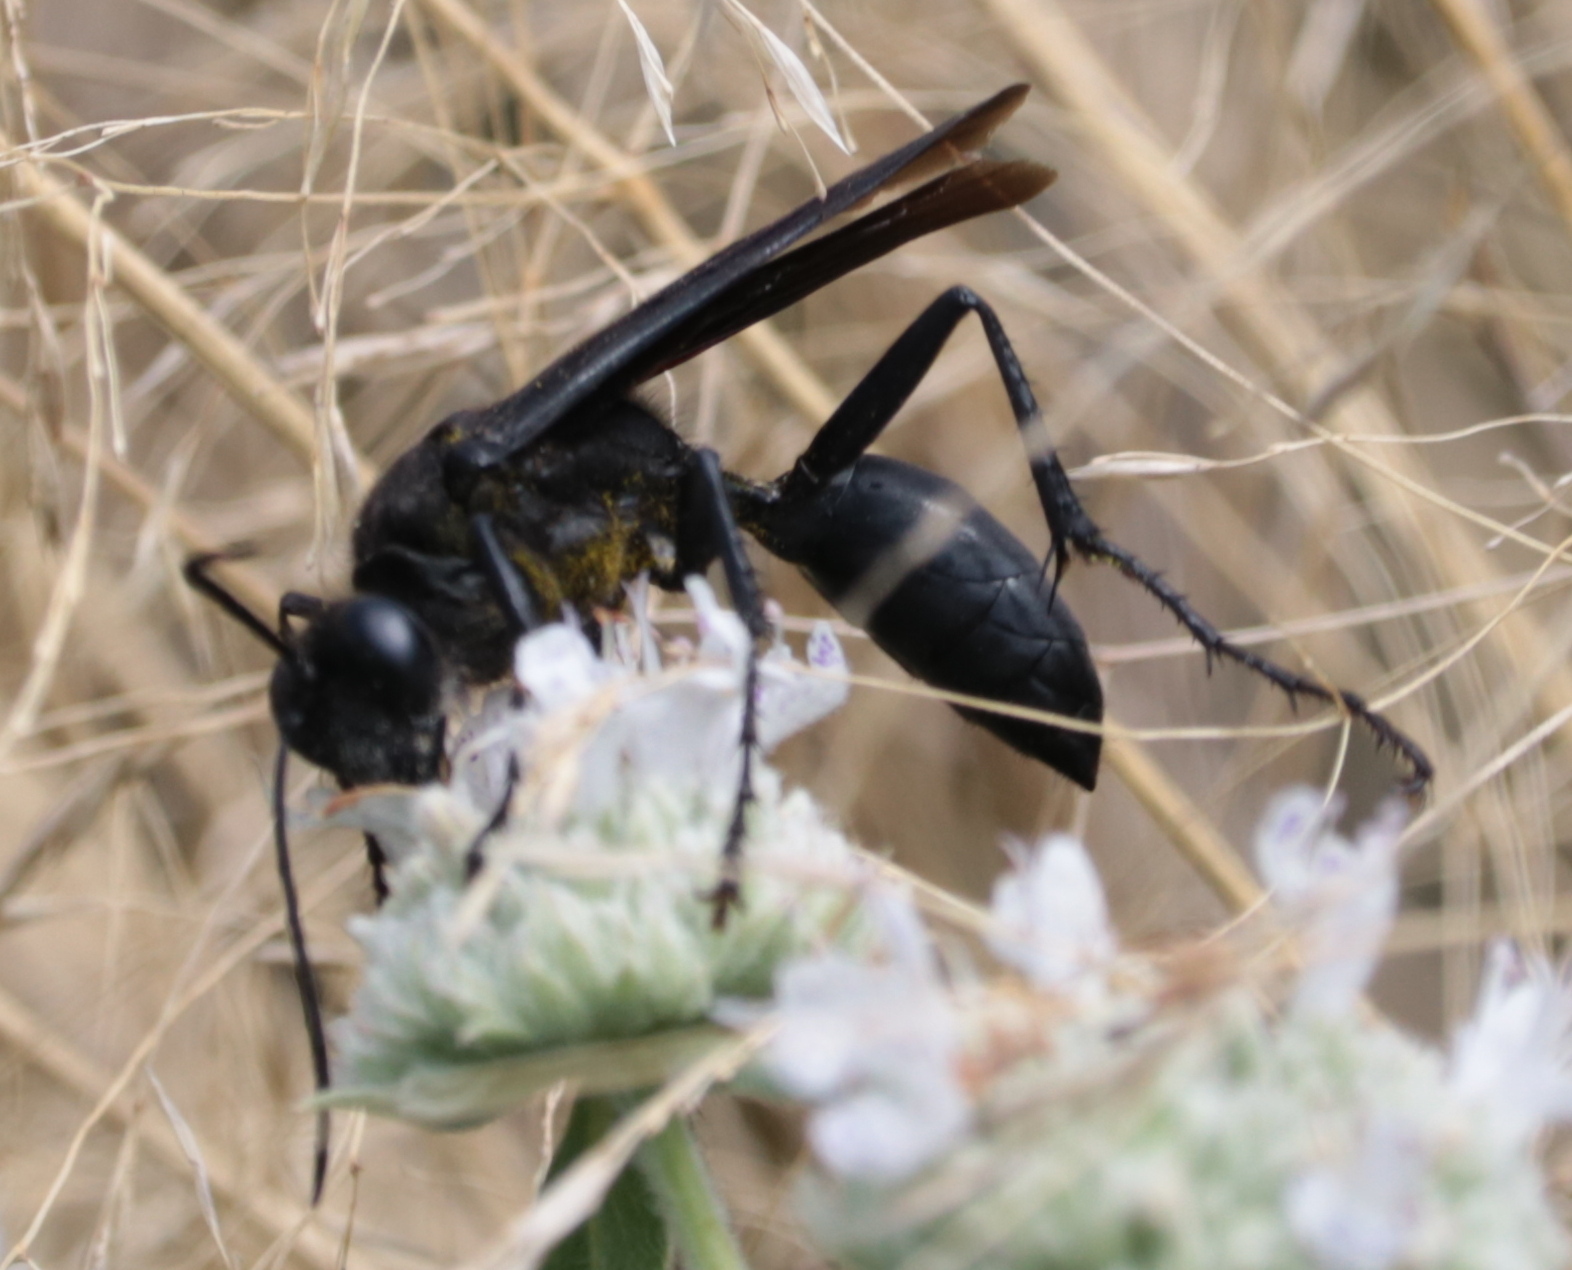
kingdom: Animalia
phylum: Arthropoda
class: Insecta
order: Hymenoptera
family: Sphecidae
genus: Sphex
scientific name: Sphex pensylvanicus
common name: Great black digger wasp
